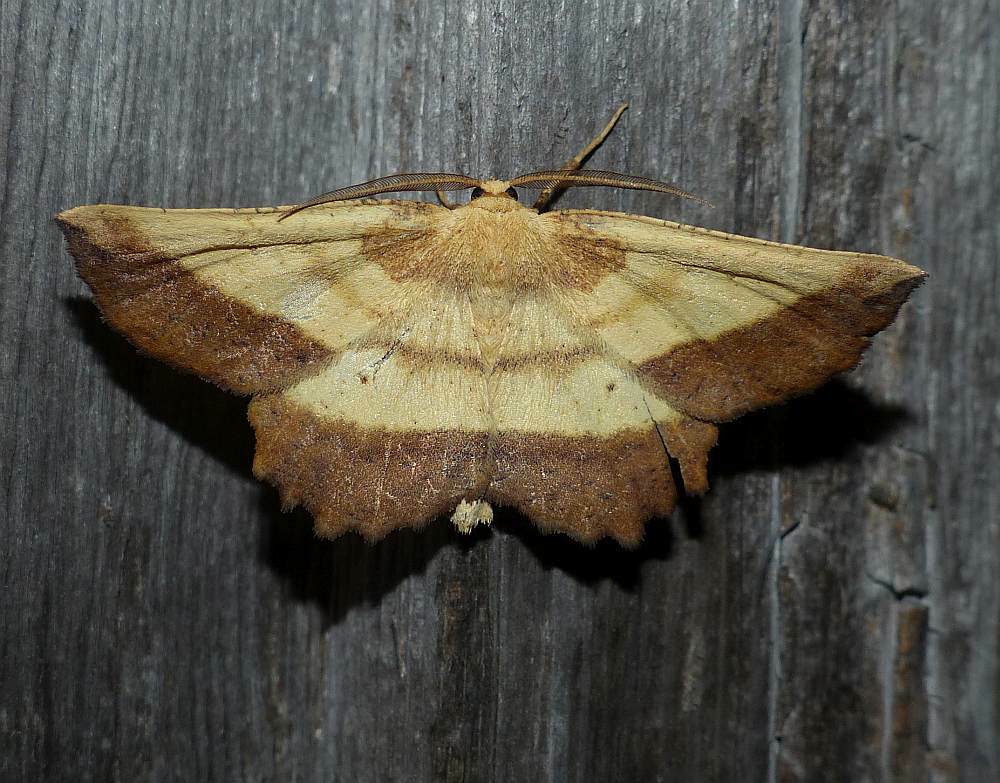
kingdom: Animalia
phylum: Arthropoda
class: Insecta
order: Lepidoptera
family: Geometridae
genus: Euchlaena
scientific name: Euchlaena serrata
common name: Saw wing
